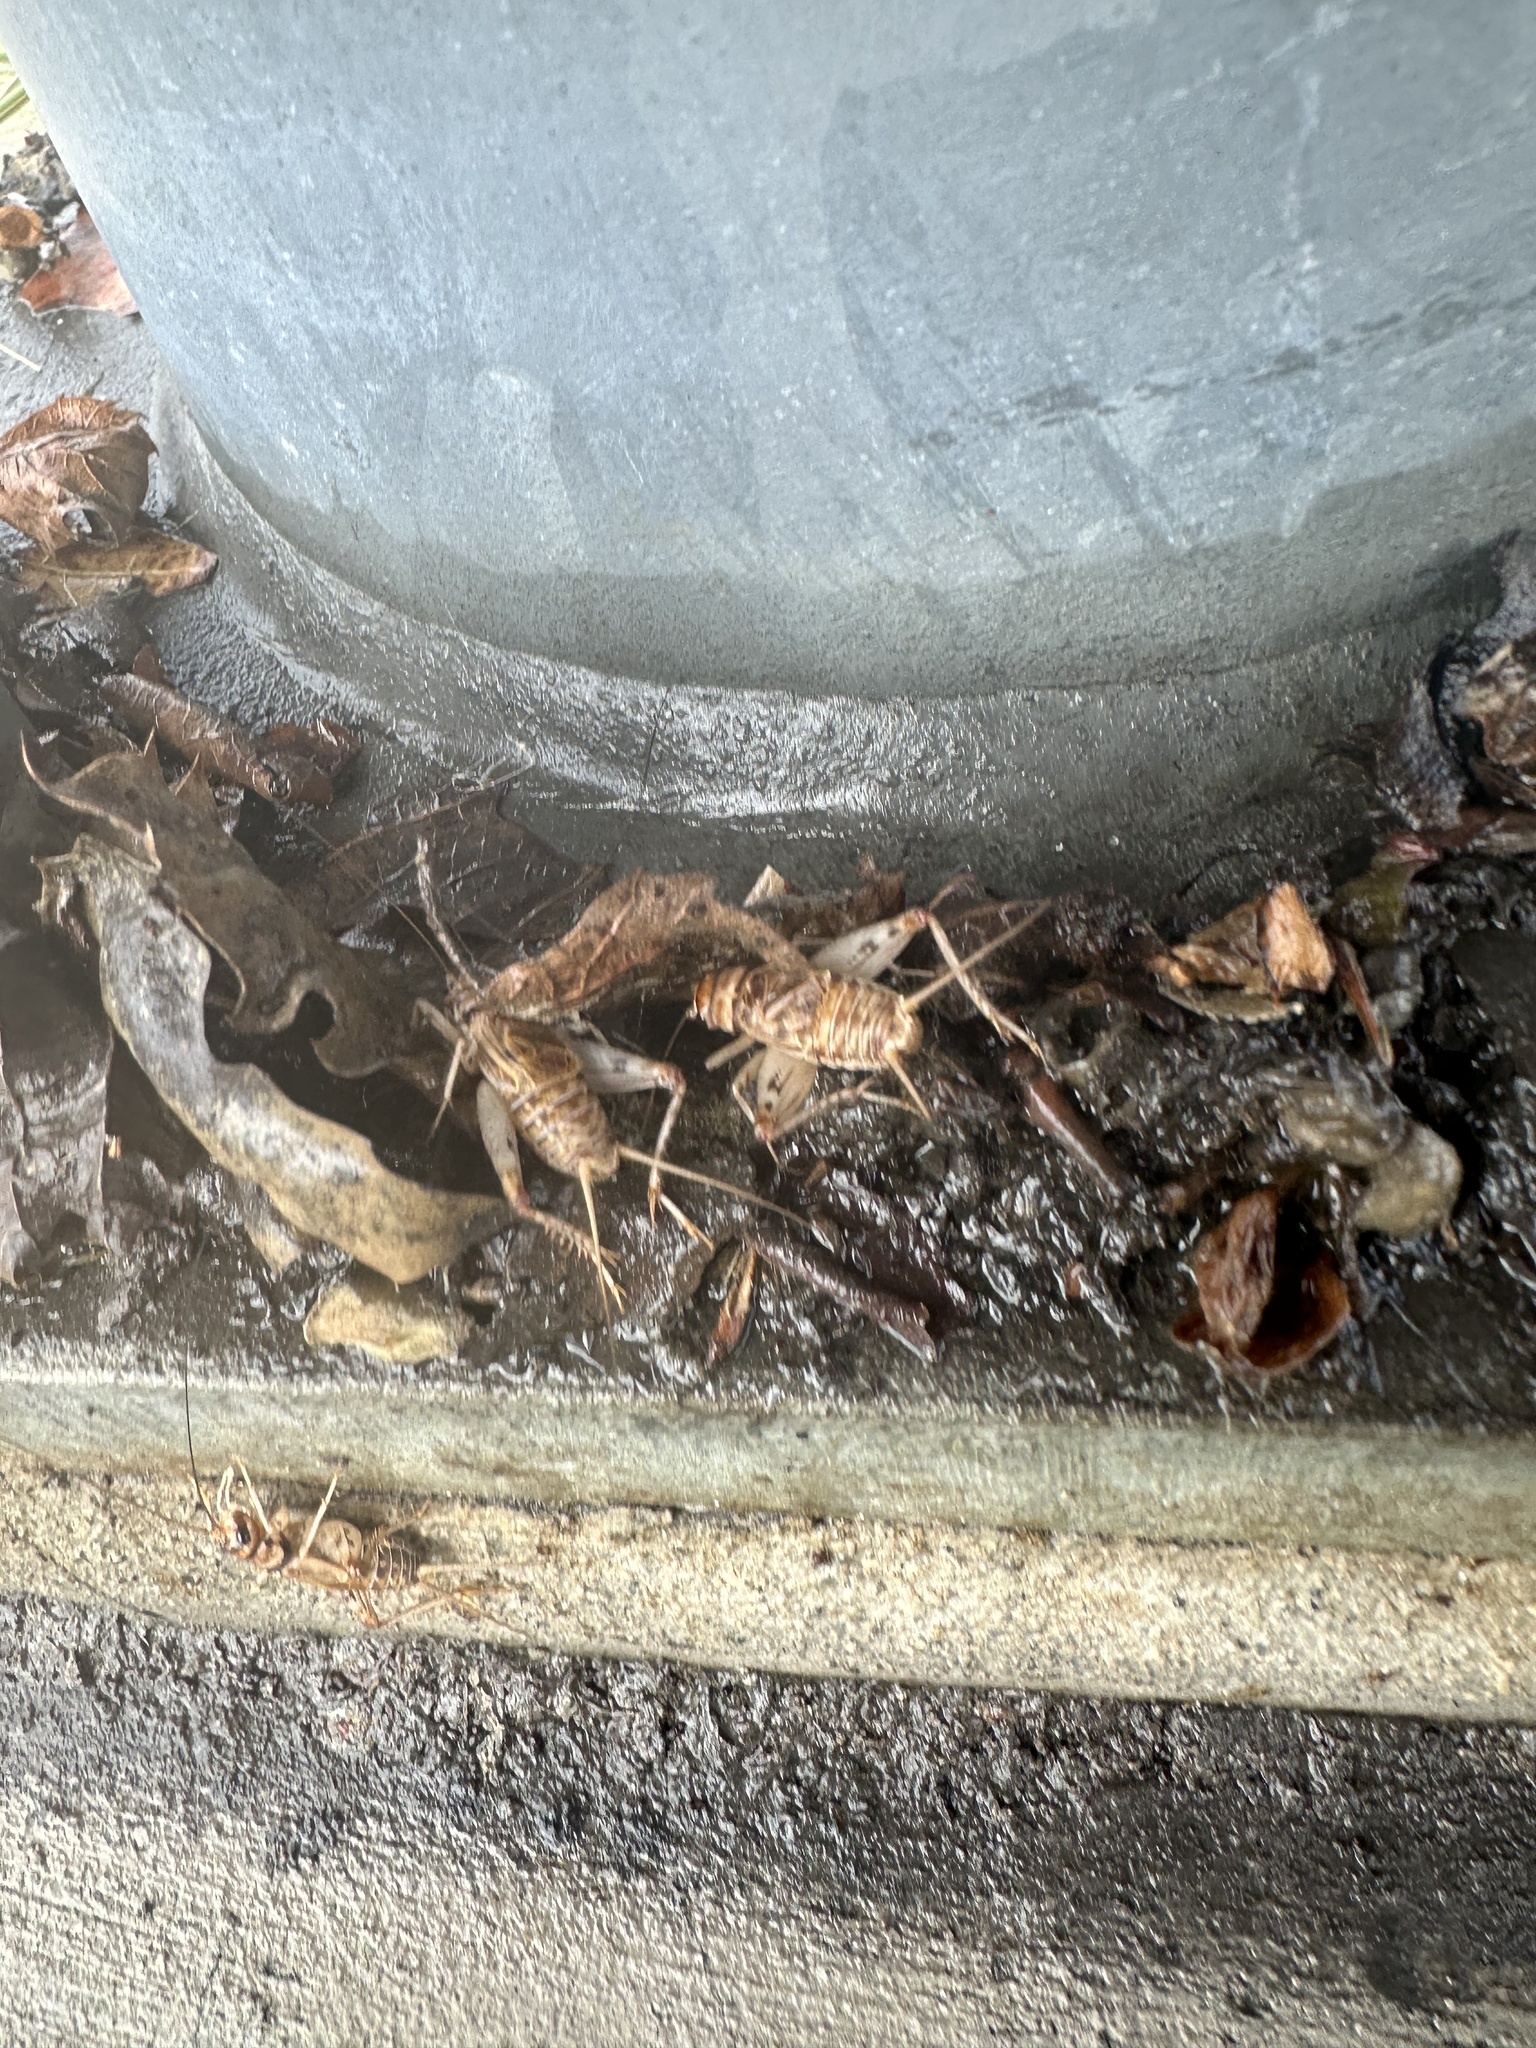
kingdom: Animalia
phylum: Arthropoda
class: Insecta
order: Orthoptera
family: Gryllidae
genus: Gryllodes
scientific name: Gryllodes sigillatus
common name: Tropical house cricket
